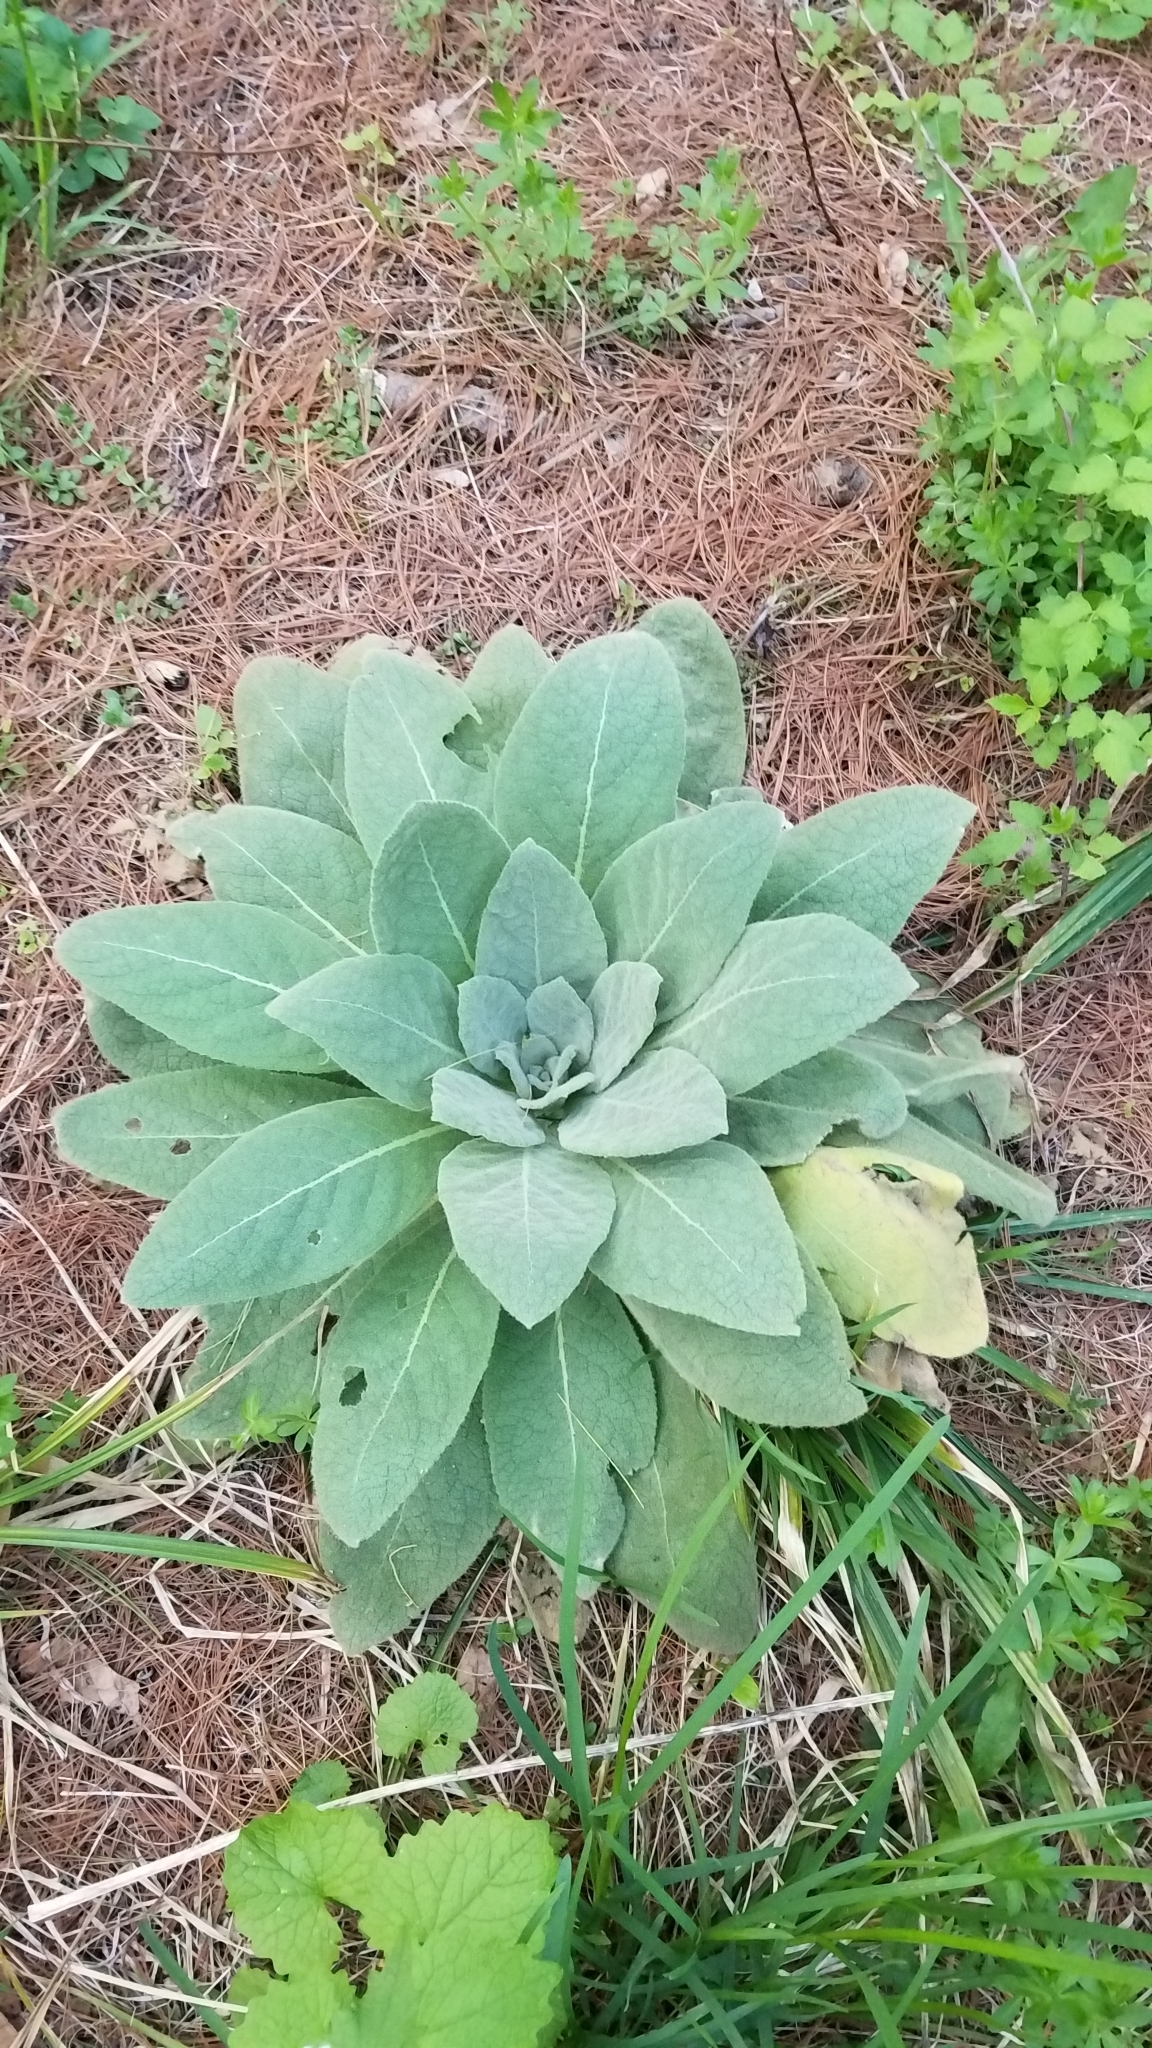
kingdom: Plantae
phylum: Tracheophyta
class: Magnoliopsida
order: Lamiales
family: Scrophulariaceae
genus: Verbascum
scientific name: Verbascum thapsus
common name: Common mullein
